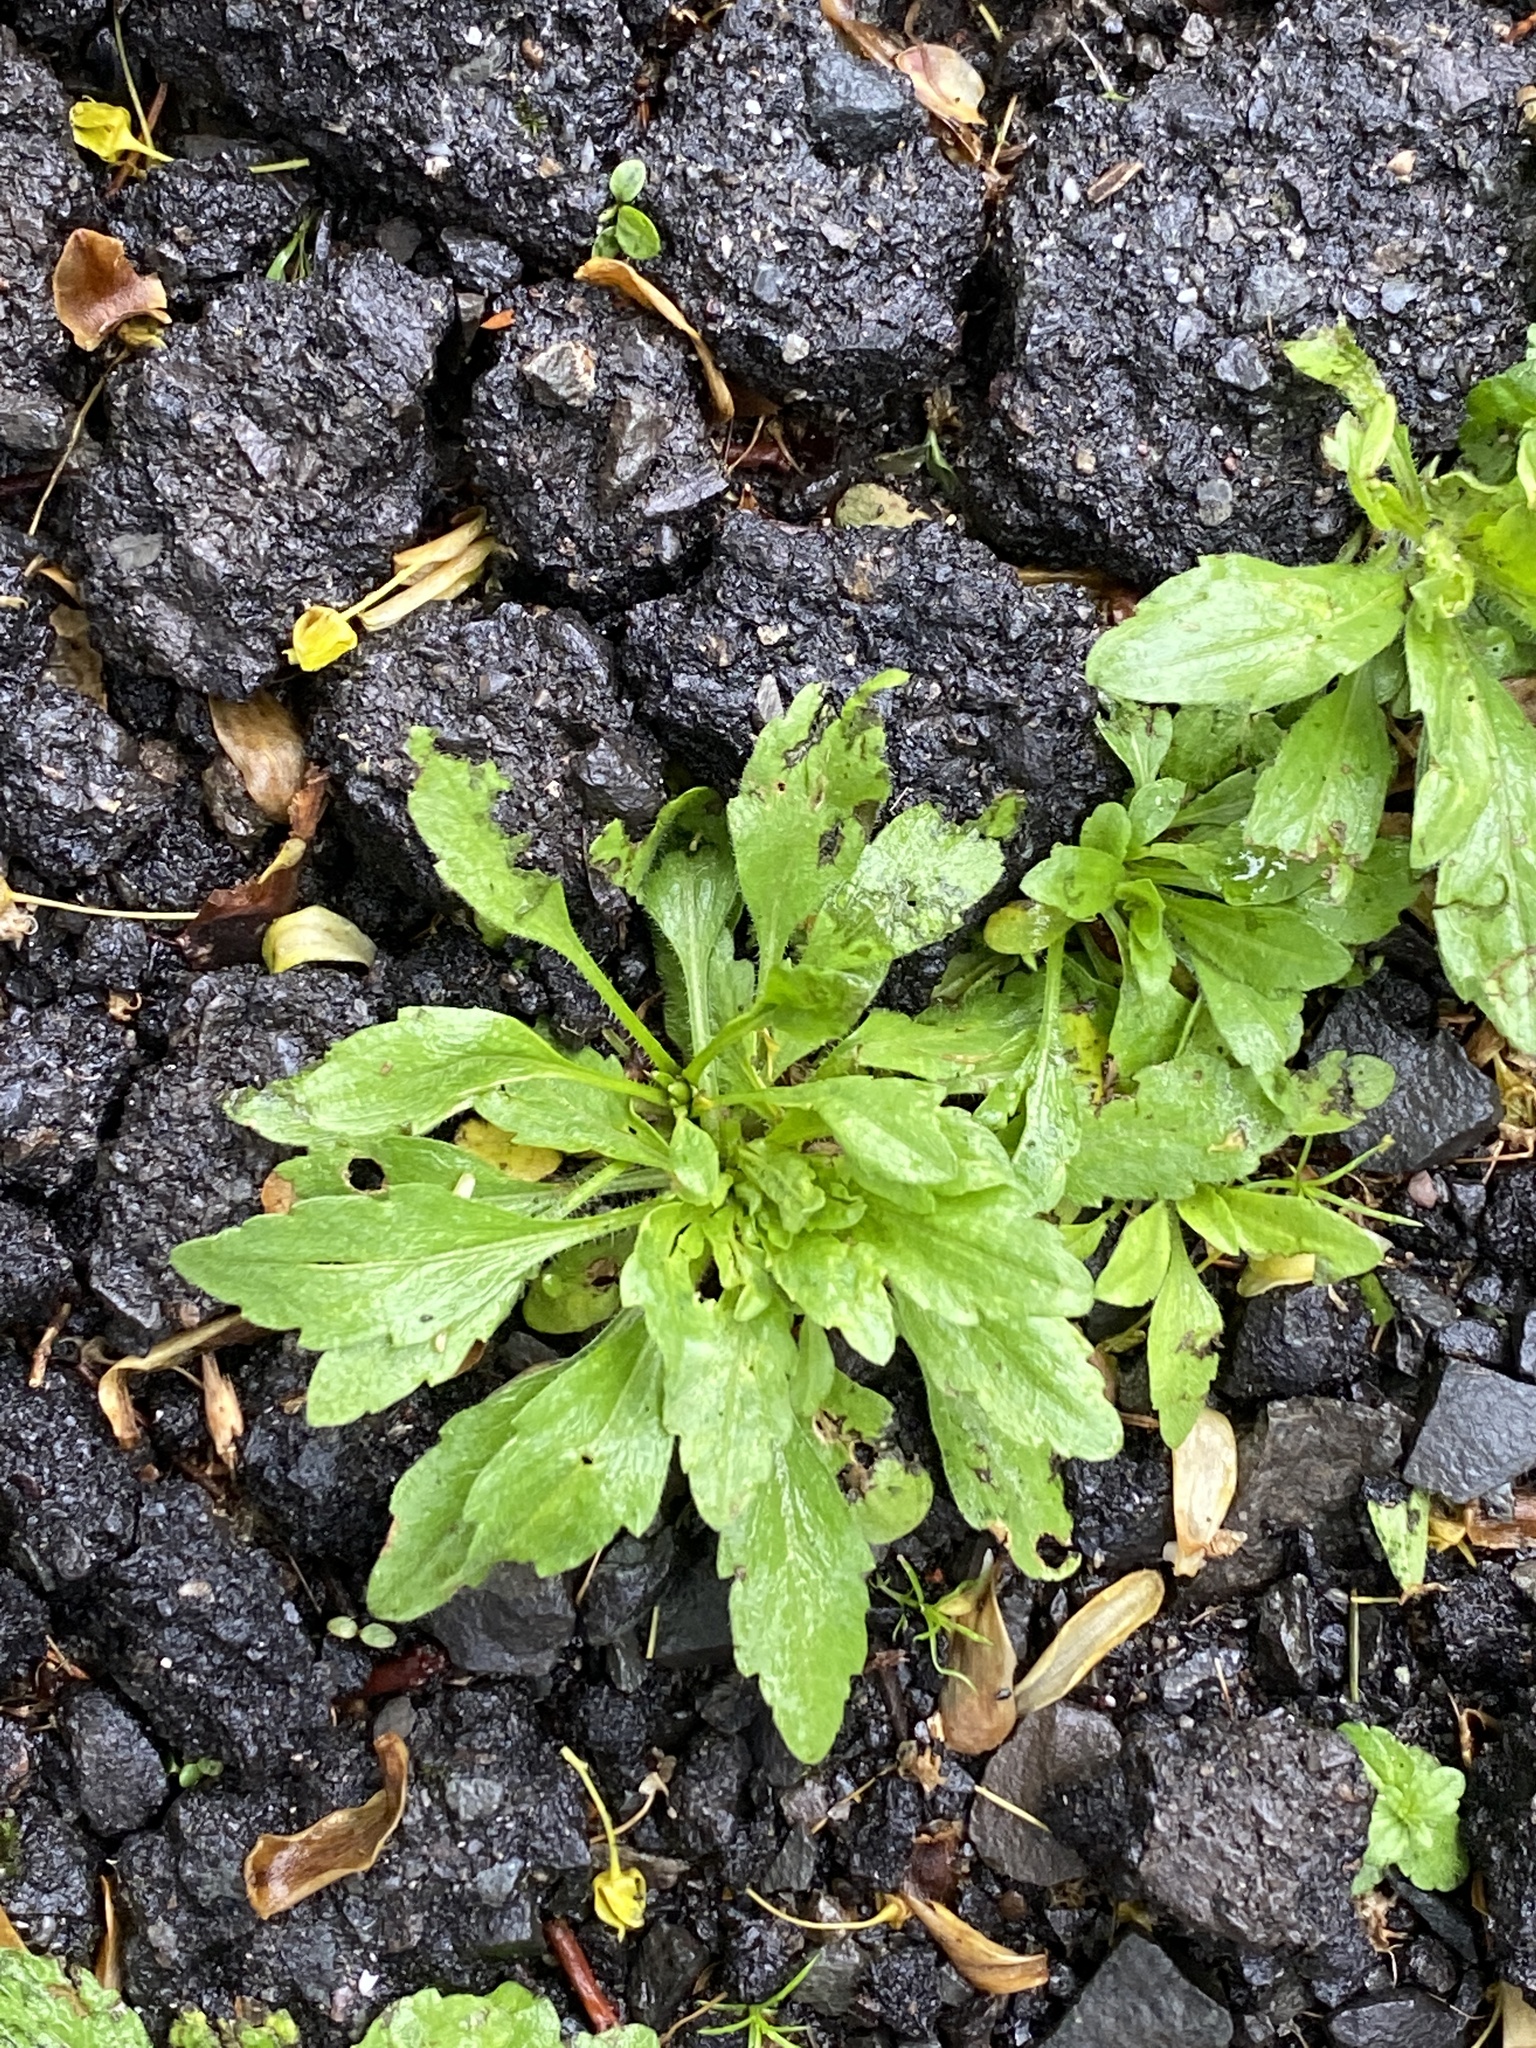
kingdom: Plantae
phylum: Tracheophyta
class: Magnoliopsida
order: Asterales
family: Asteraceae
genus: Erigeron
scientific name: Erigeron canadensis
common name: Canadian fleabane
